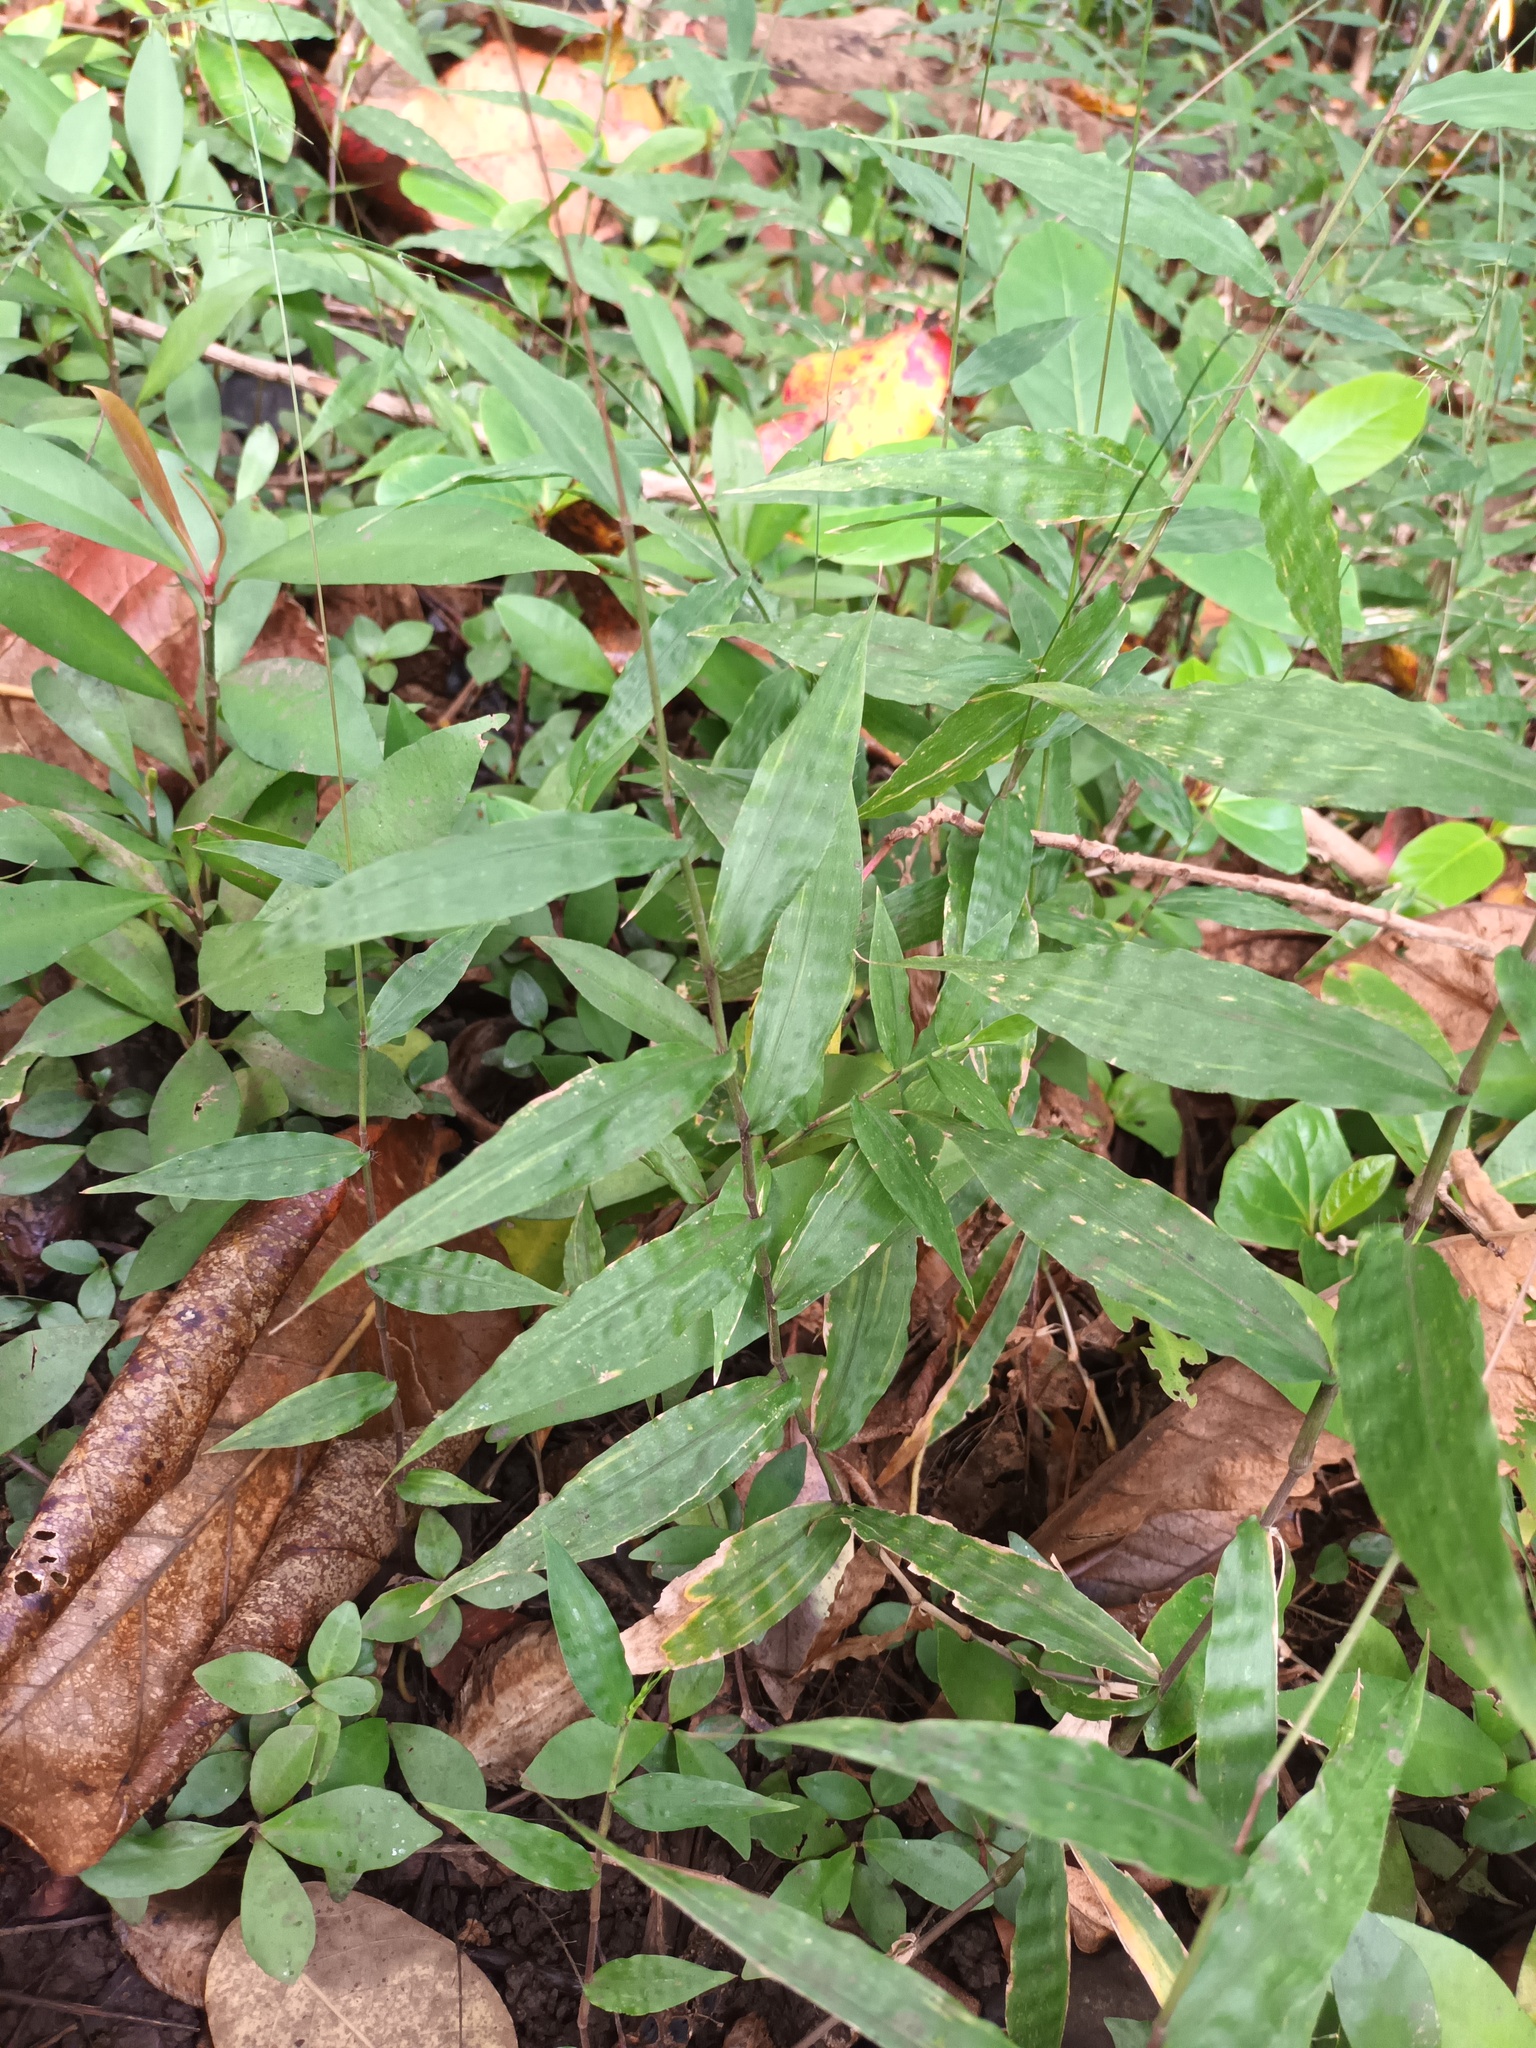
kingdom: Plantae
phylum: Tracheophyta
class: Liliopsida
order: Poales
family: Poaceae
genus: Oplismenus
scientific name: Oplismenus compositus
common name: Running mountain grass
